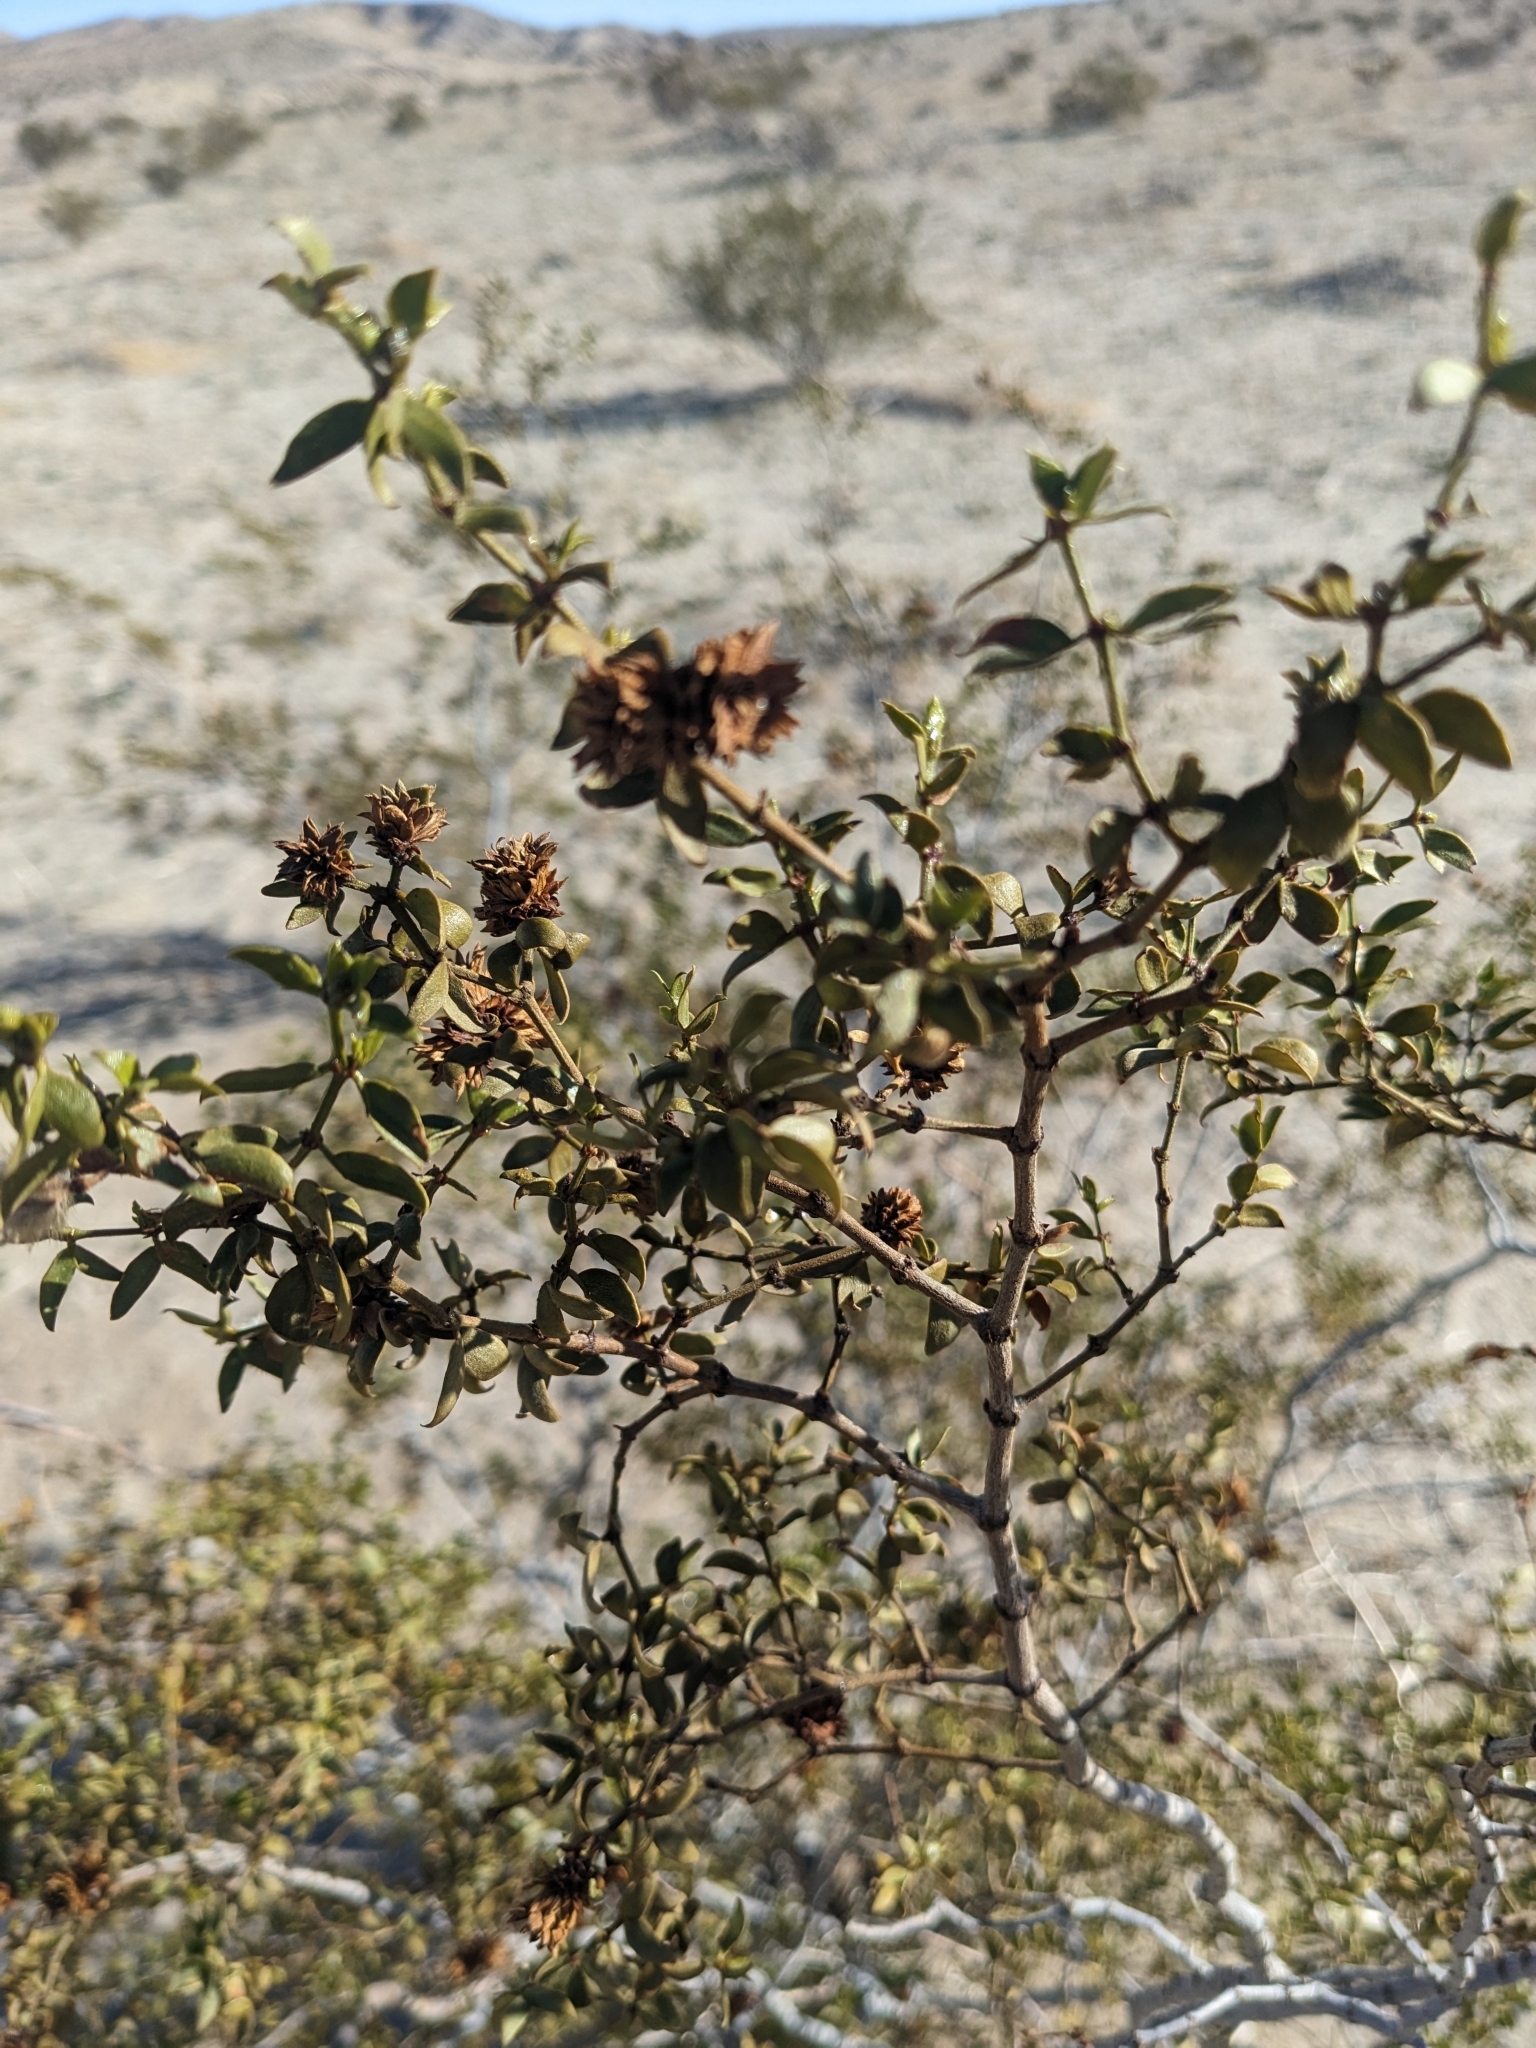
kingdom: Plantae
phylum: Tracheophyta
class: Magnoliopsida
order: Zygophyllales
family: Zygophyllaceae
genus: Larrea
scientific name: Larrea tridentata
